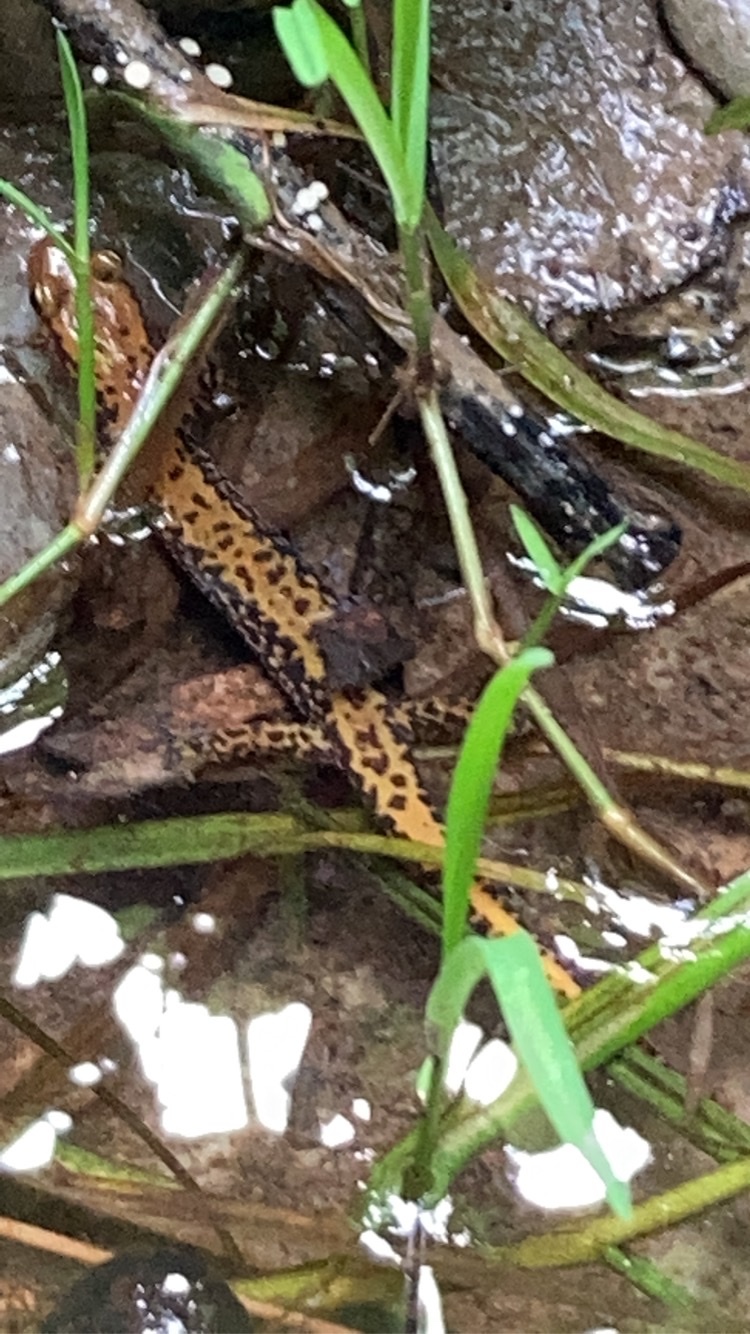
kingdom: Animalia
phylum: Chordata
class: Amphibia
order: Caudata
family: Plethodontidae
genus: Eurycea
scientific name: Eurycea longicauda
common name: Long-tailed salamander
